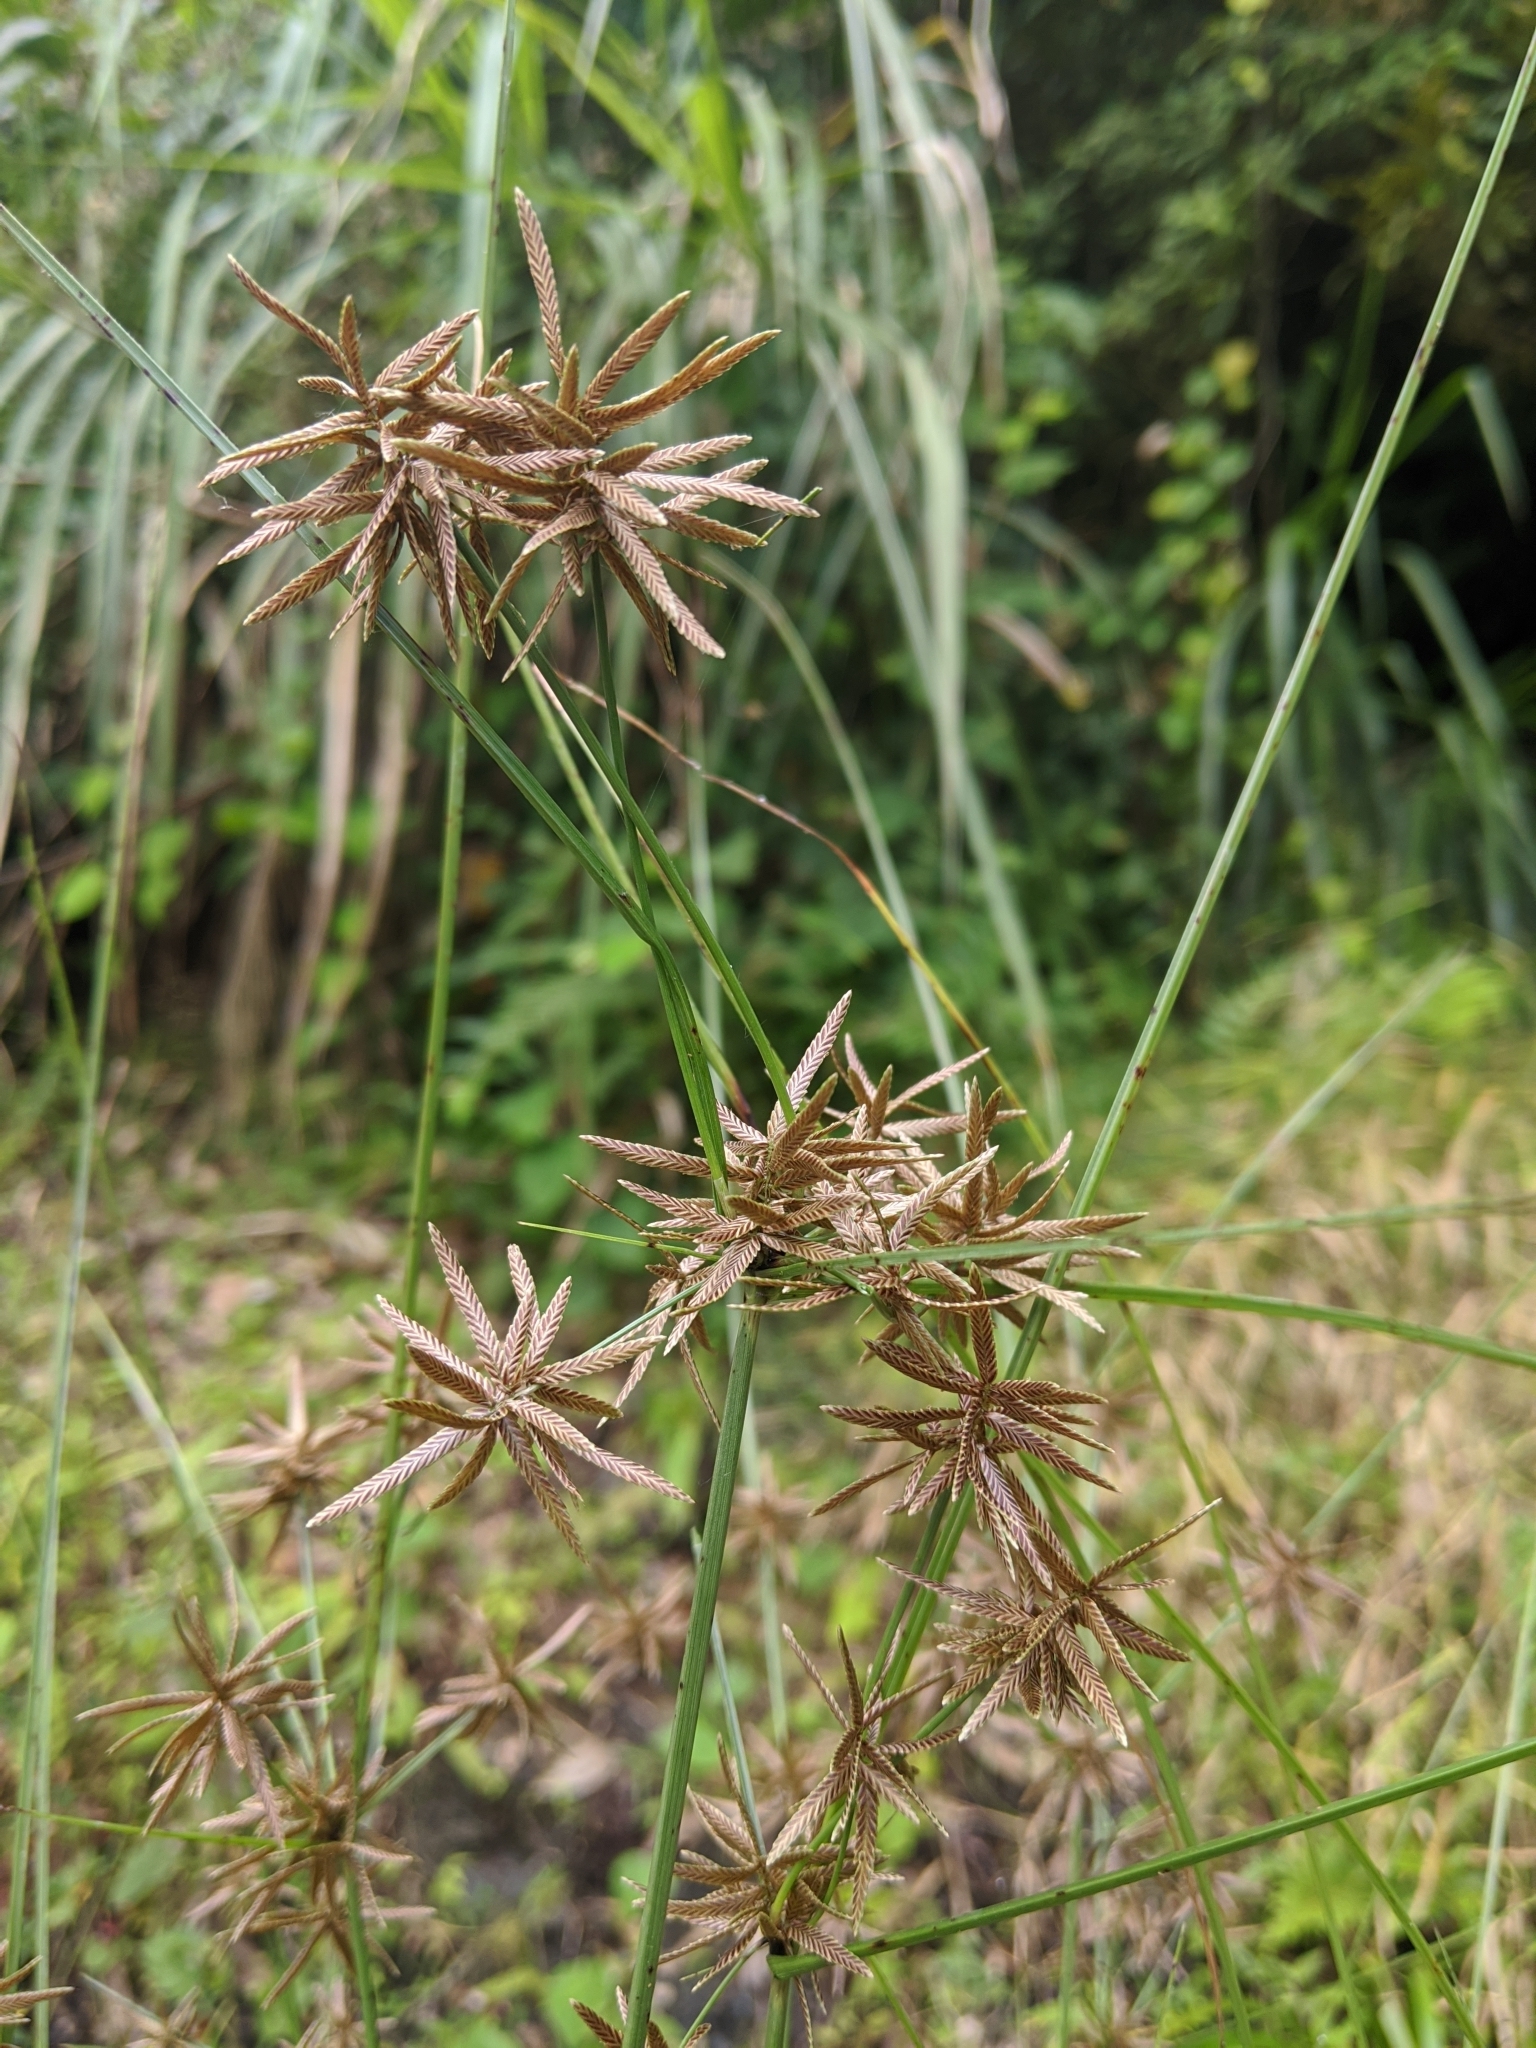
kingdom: Plantae
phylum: Tracheophyta
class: Liliopsida
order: Poales
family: Cyperaceae
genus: Cyperus
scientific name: Cyperus flavidus
